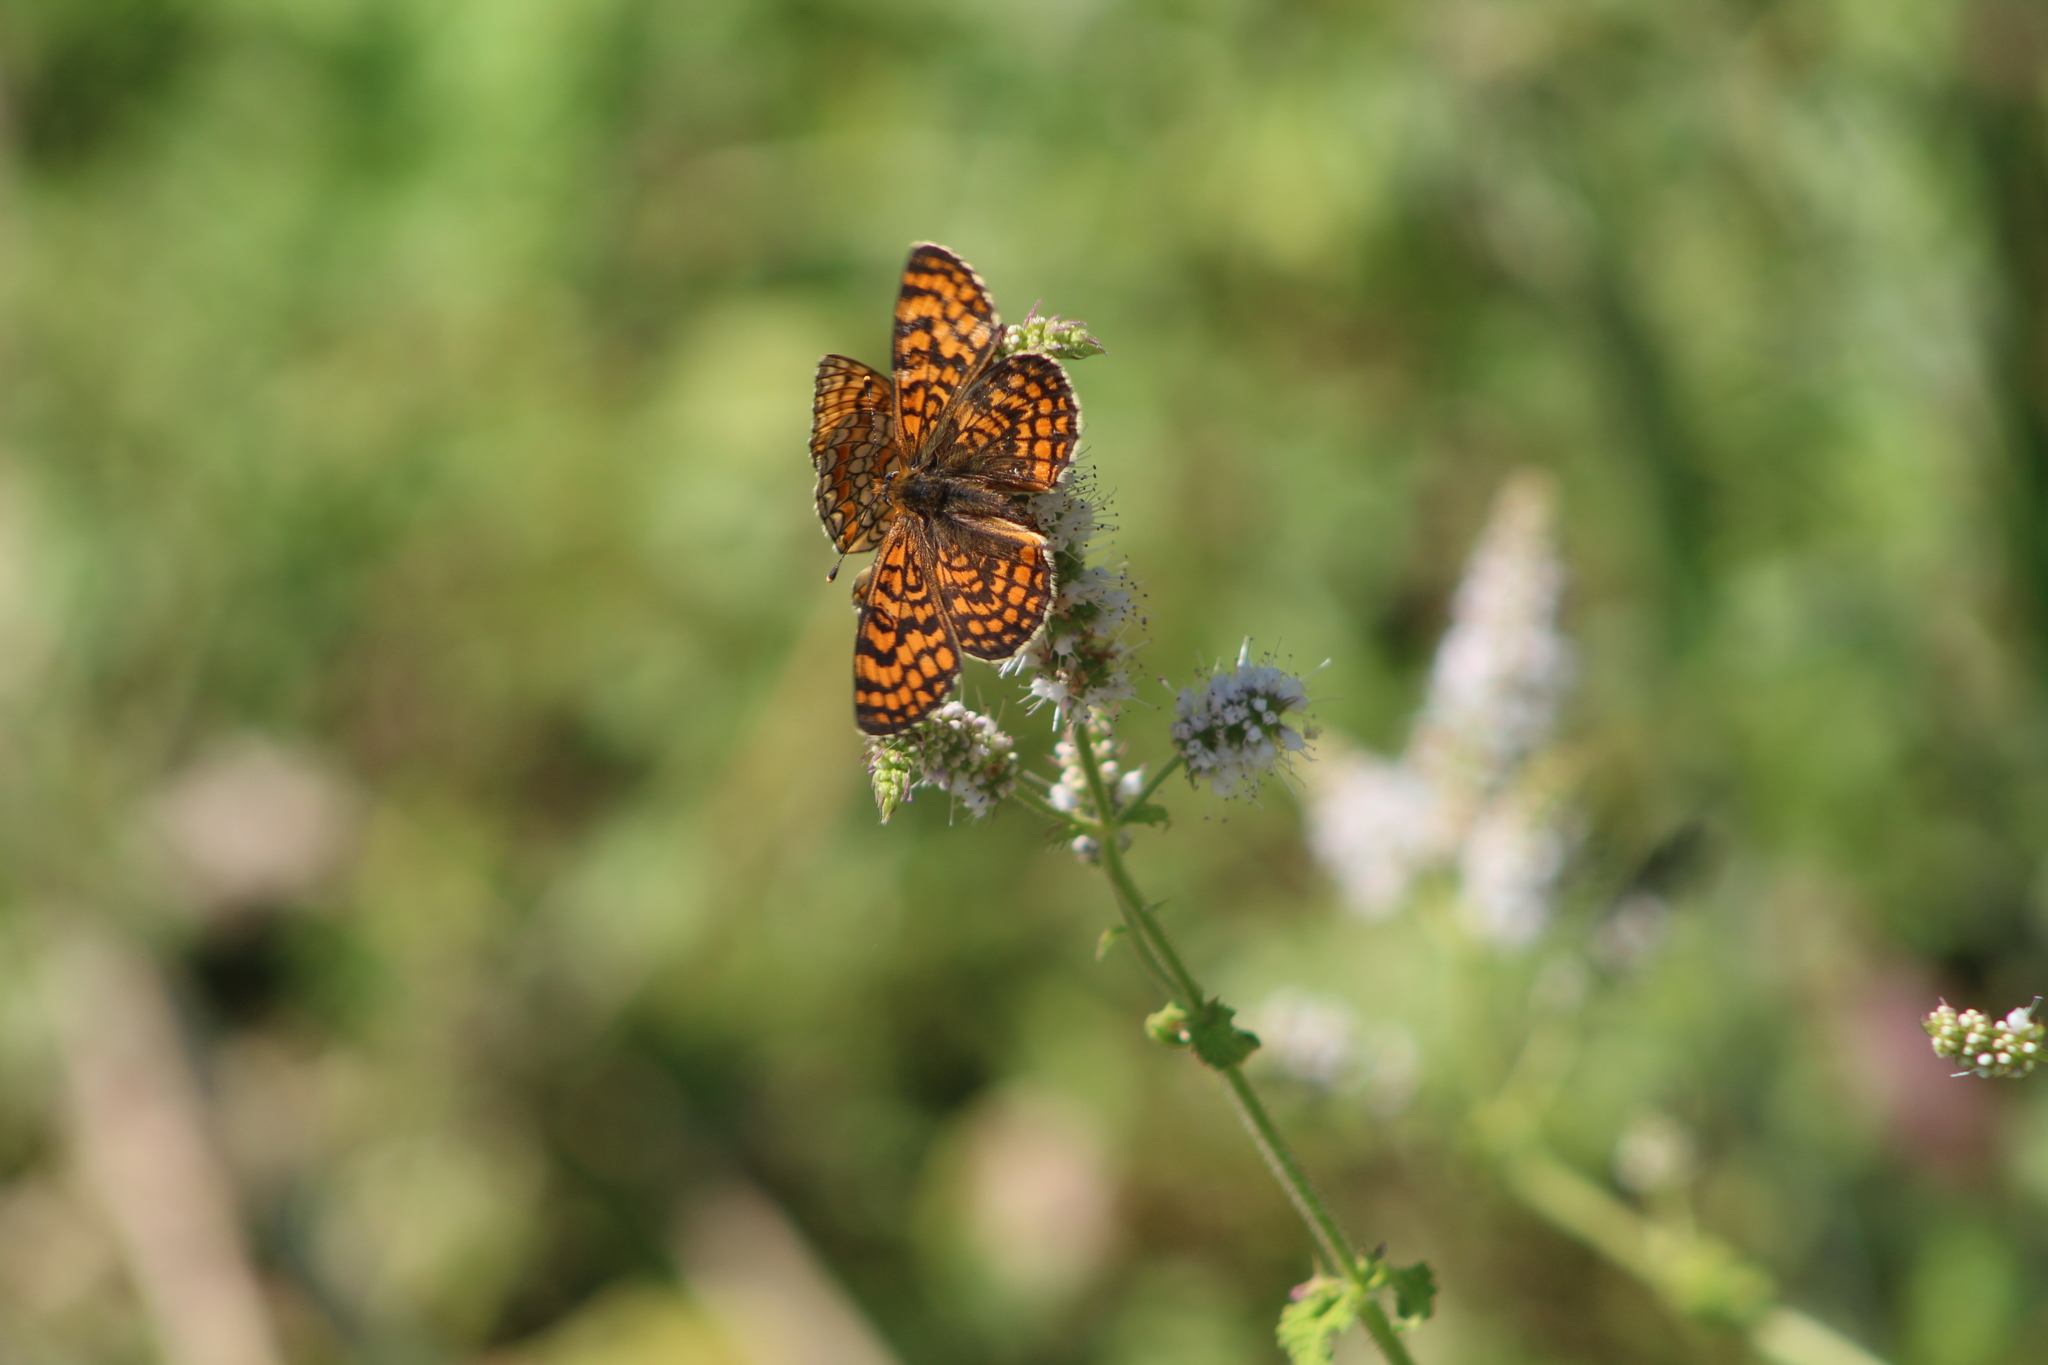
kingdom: Animalia
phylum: Arthropoda
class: Insecta
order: Lepidoptera
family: Nymphalidae
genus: Melitaea
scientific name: Melitaea deione
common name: Provençal fritillary
